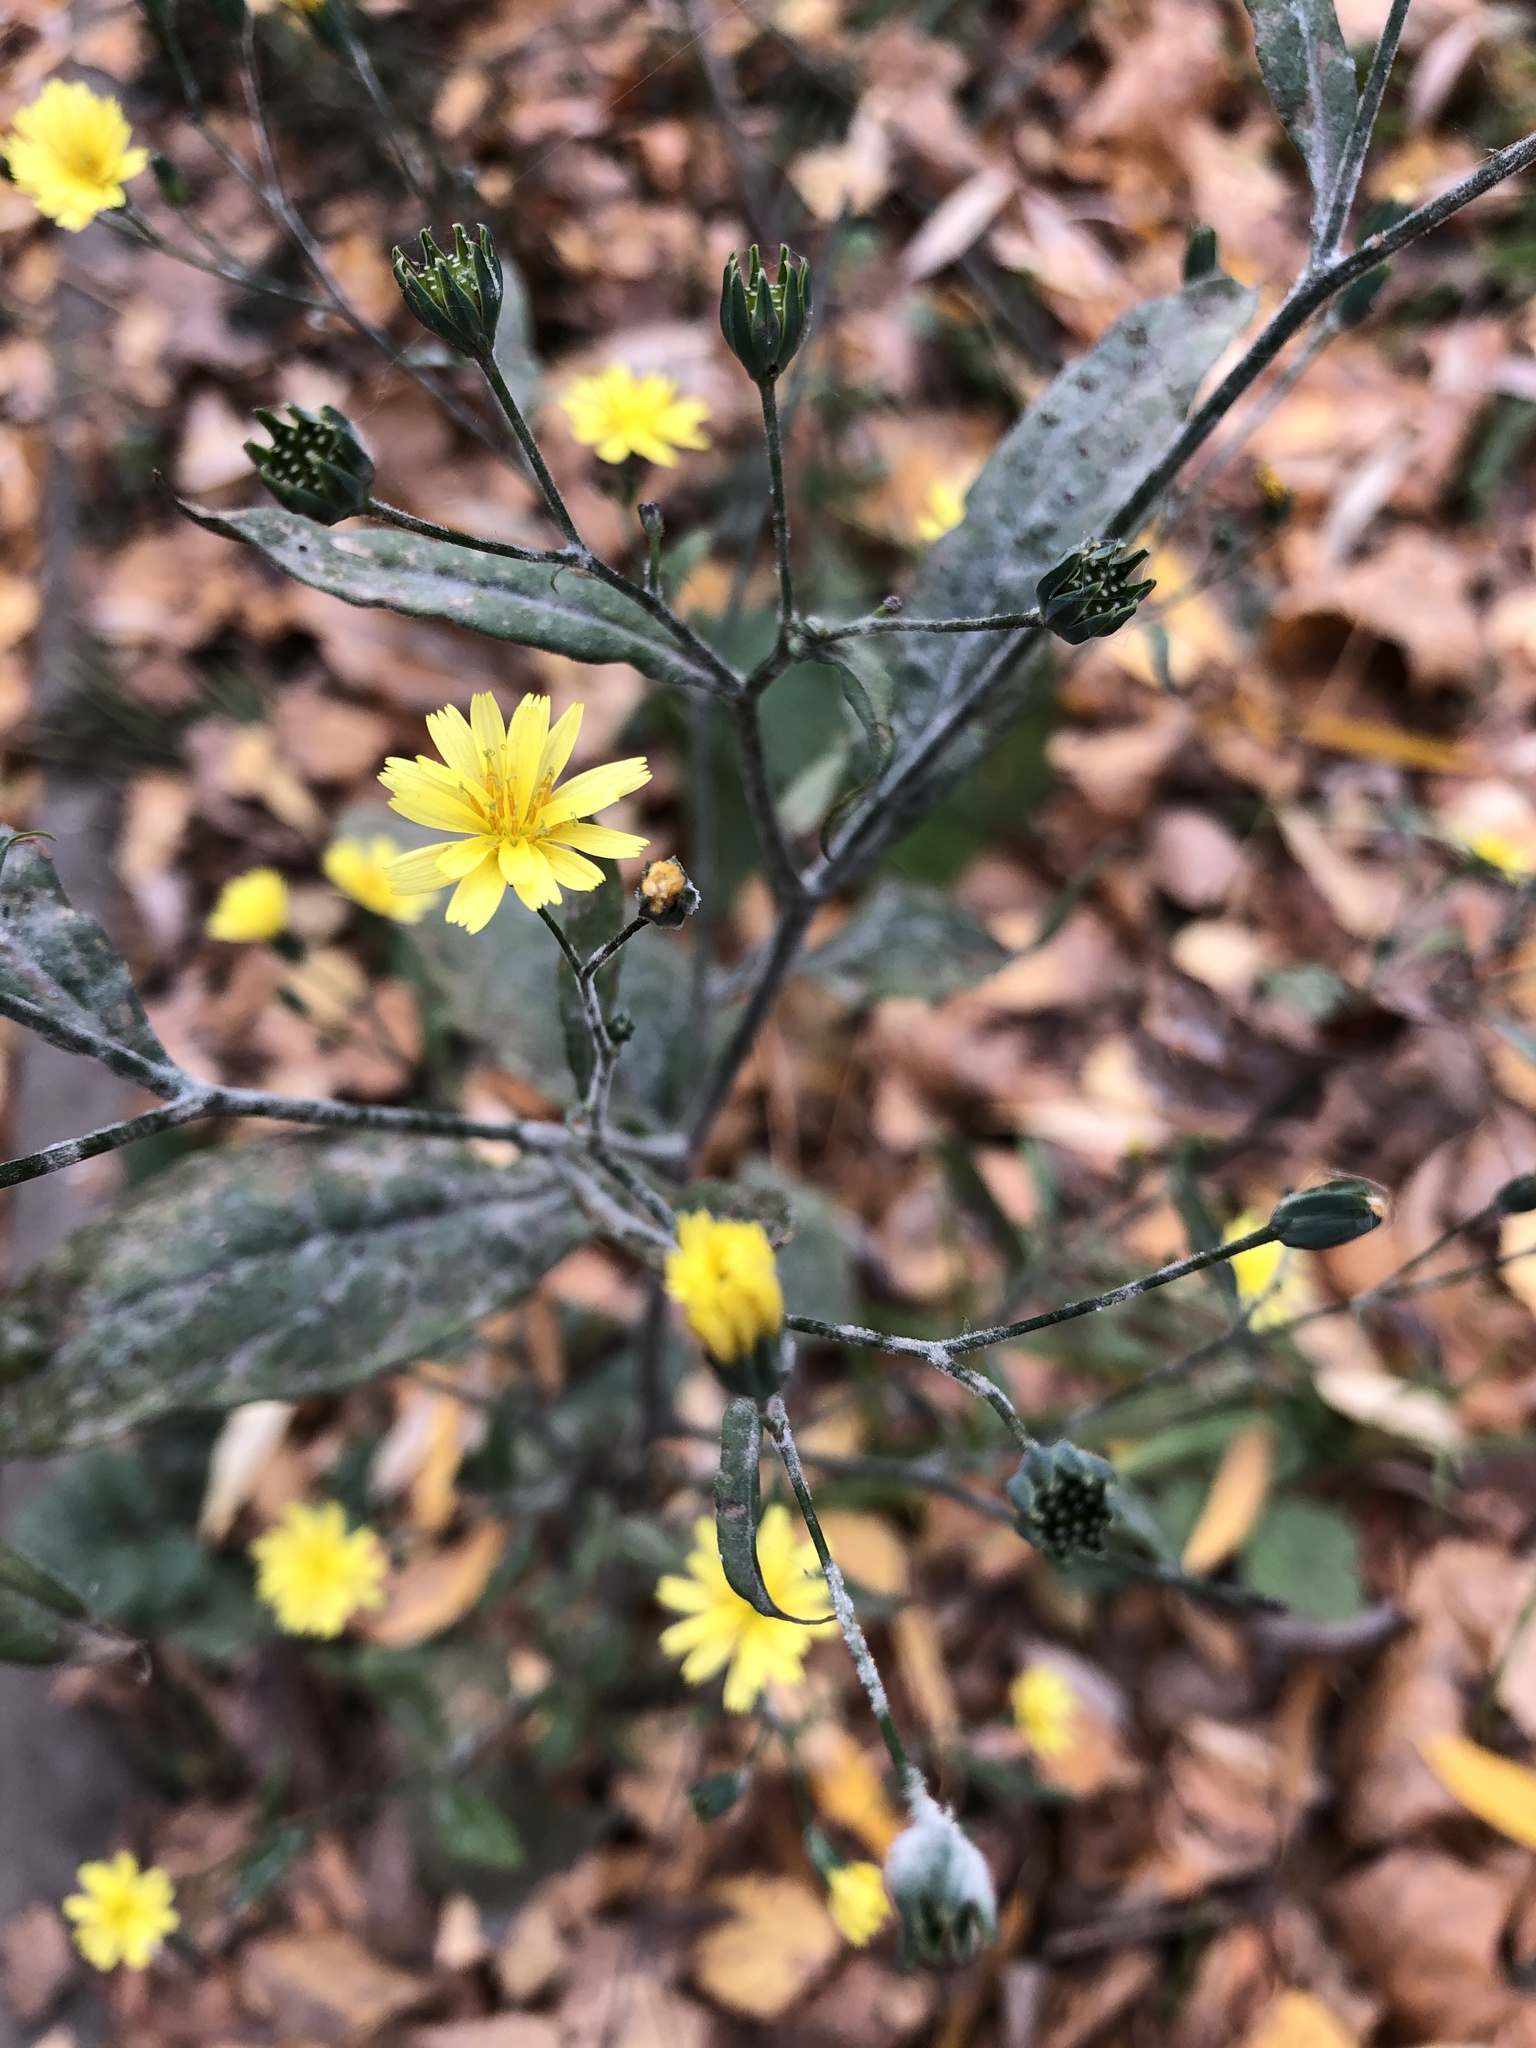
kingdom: Plantae
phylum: Tracheophyta
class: Magnoliopsida
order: Asterales
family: Asteraceae
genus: Lapsana
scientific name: Lapsana communis
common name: Nipplewort
